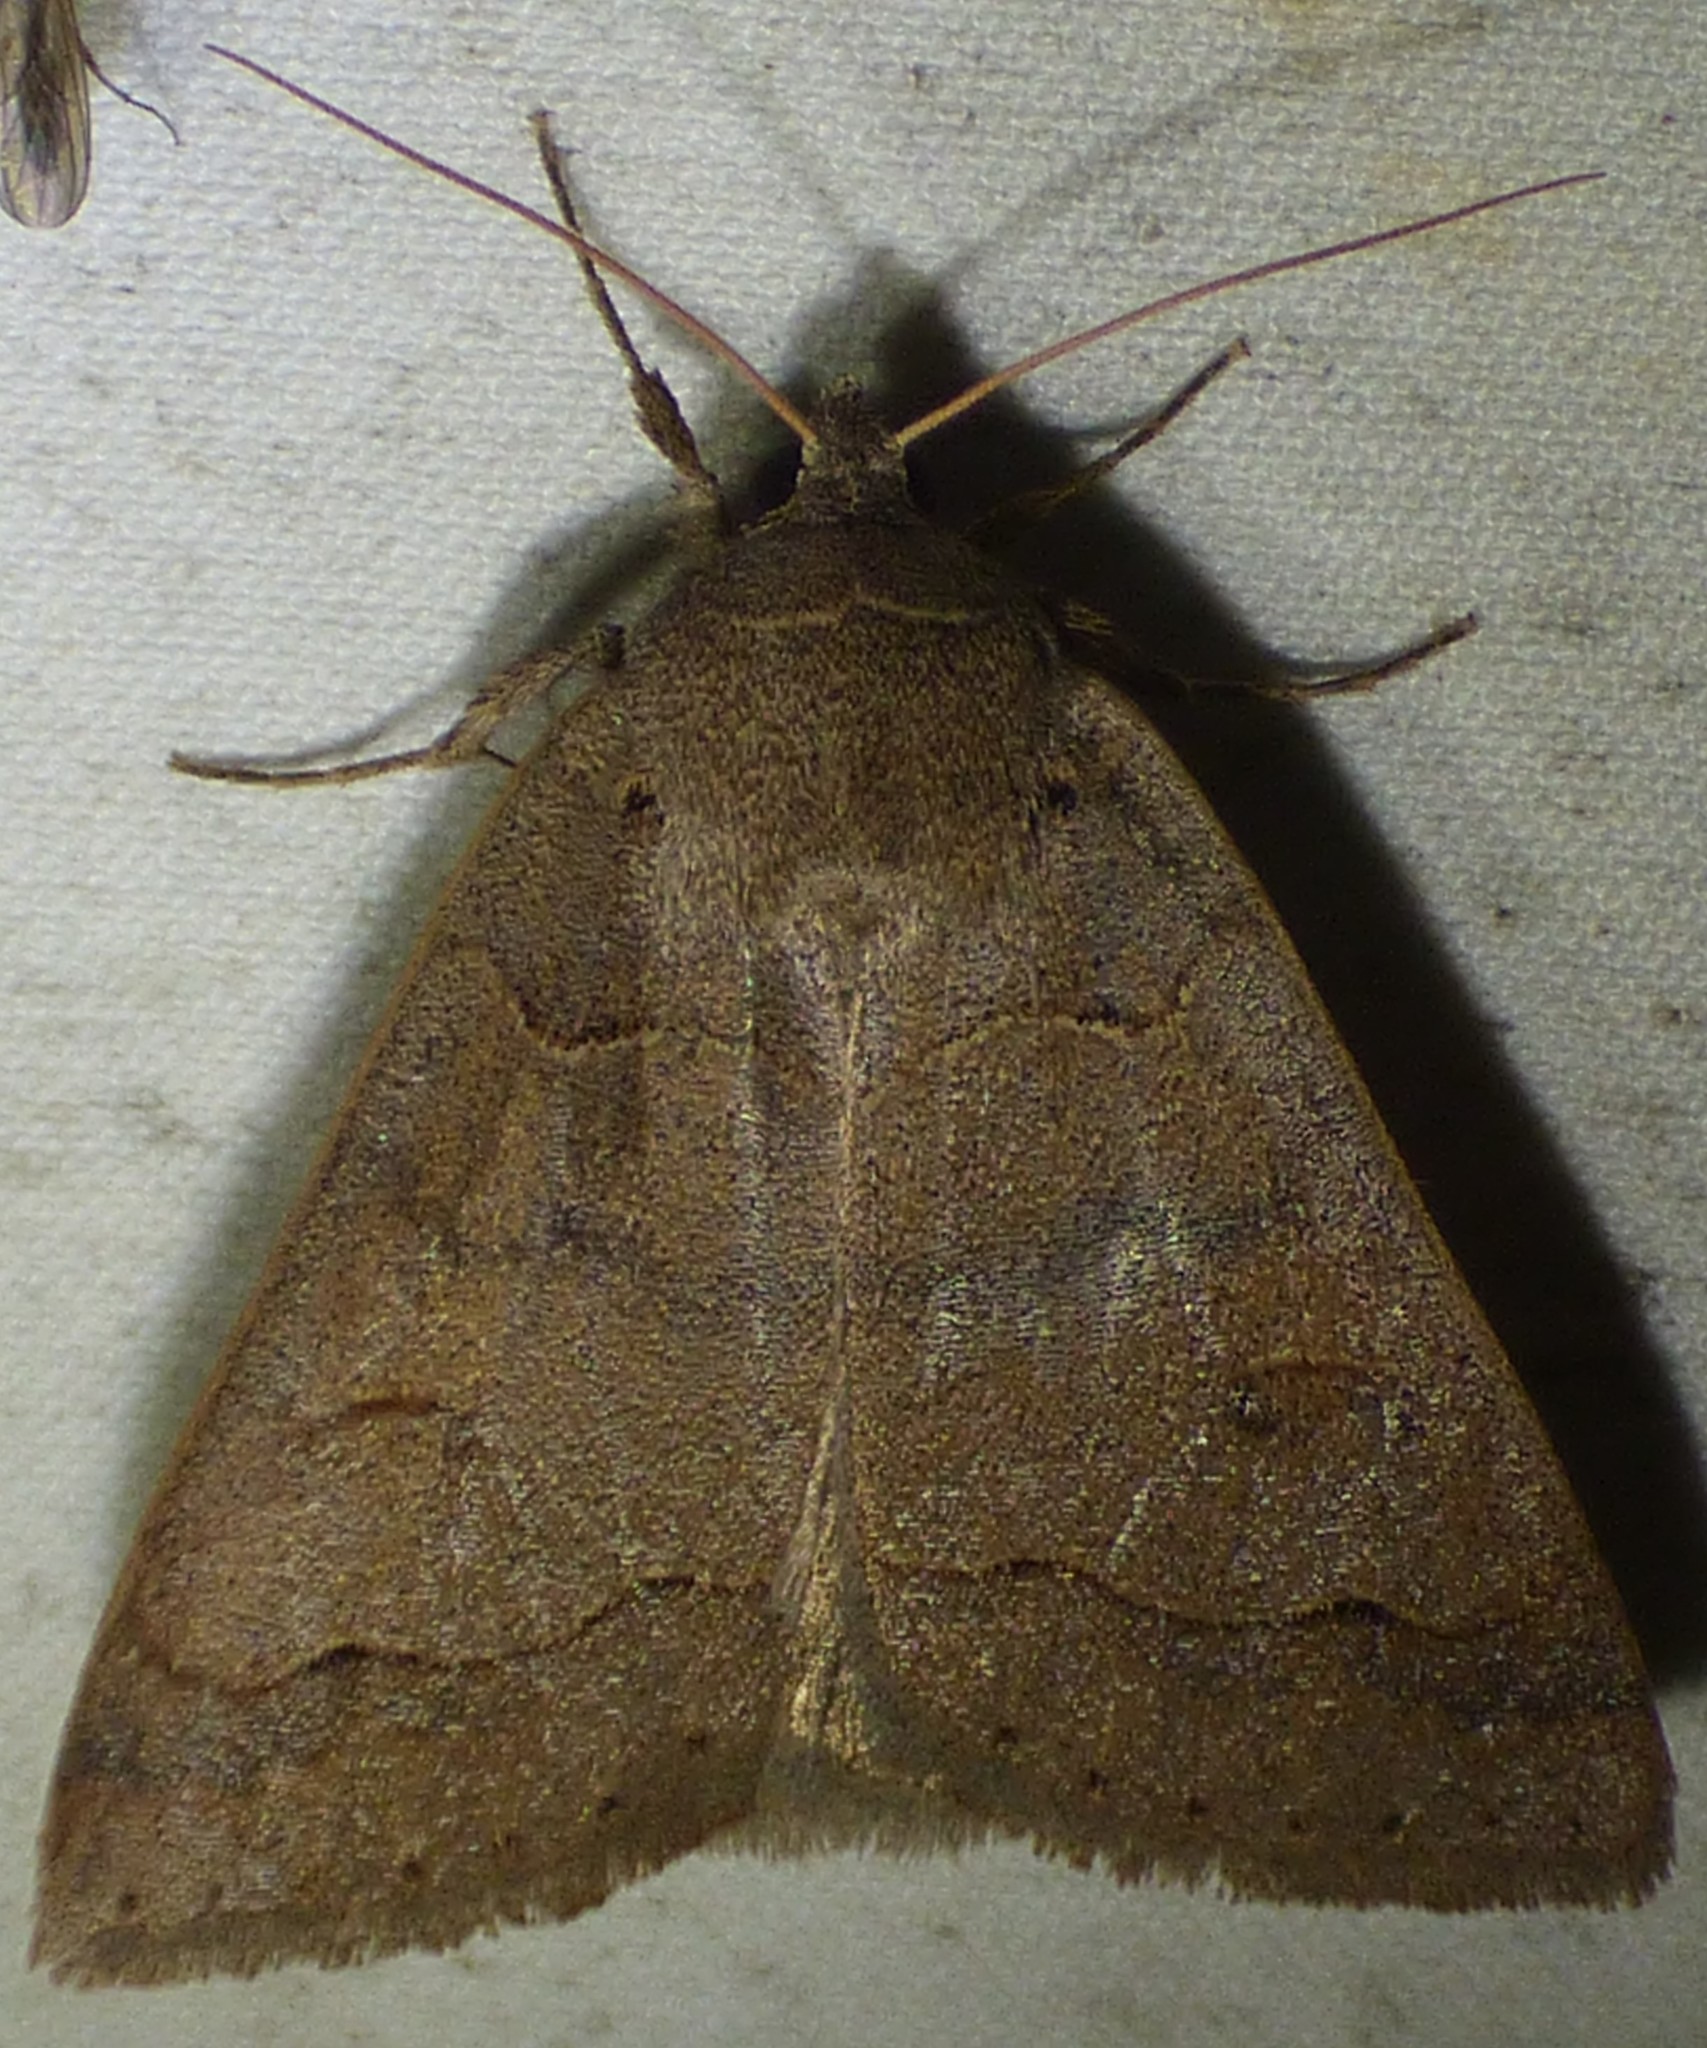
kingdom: Animalia
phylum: Arthropoda
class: Insecta
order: Lepidoptera
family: Erebidae
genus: Phoberia
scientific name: Phoberia atomaris
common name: Common oak moth
